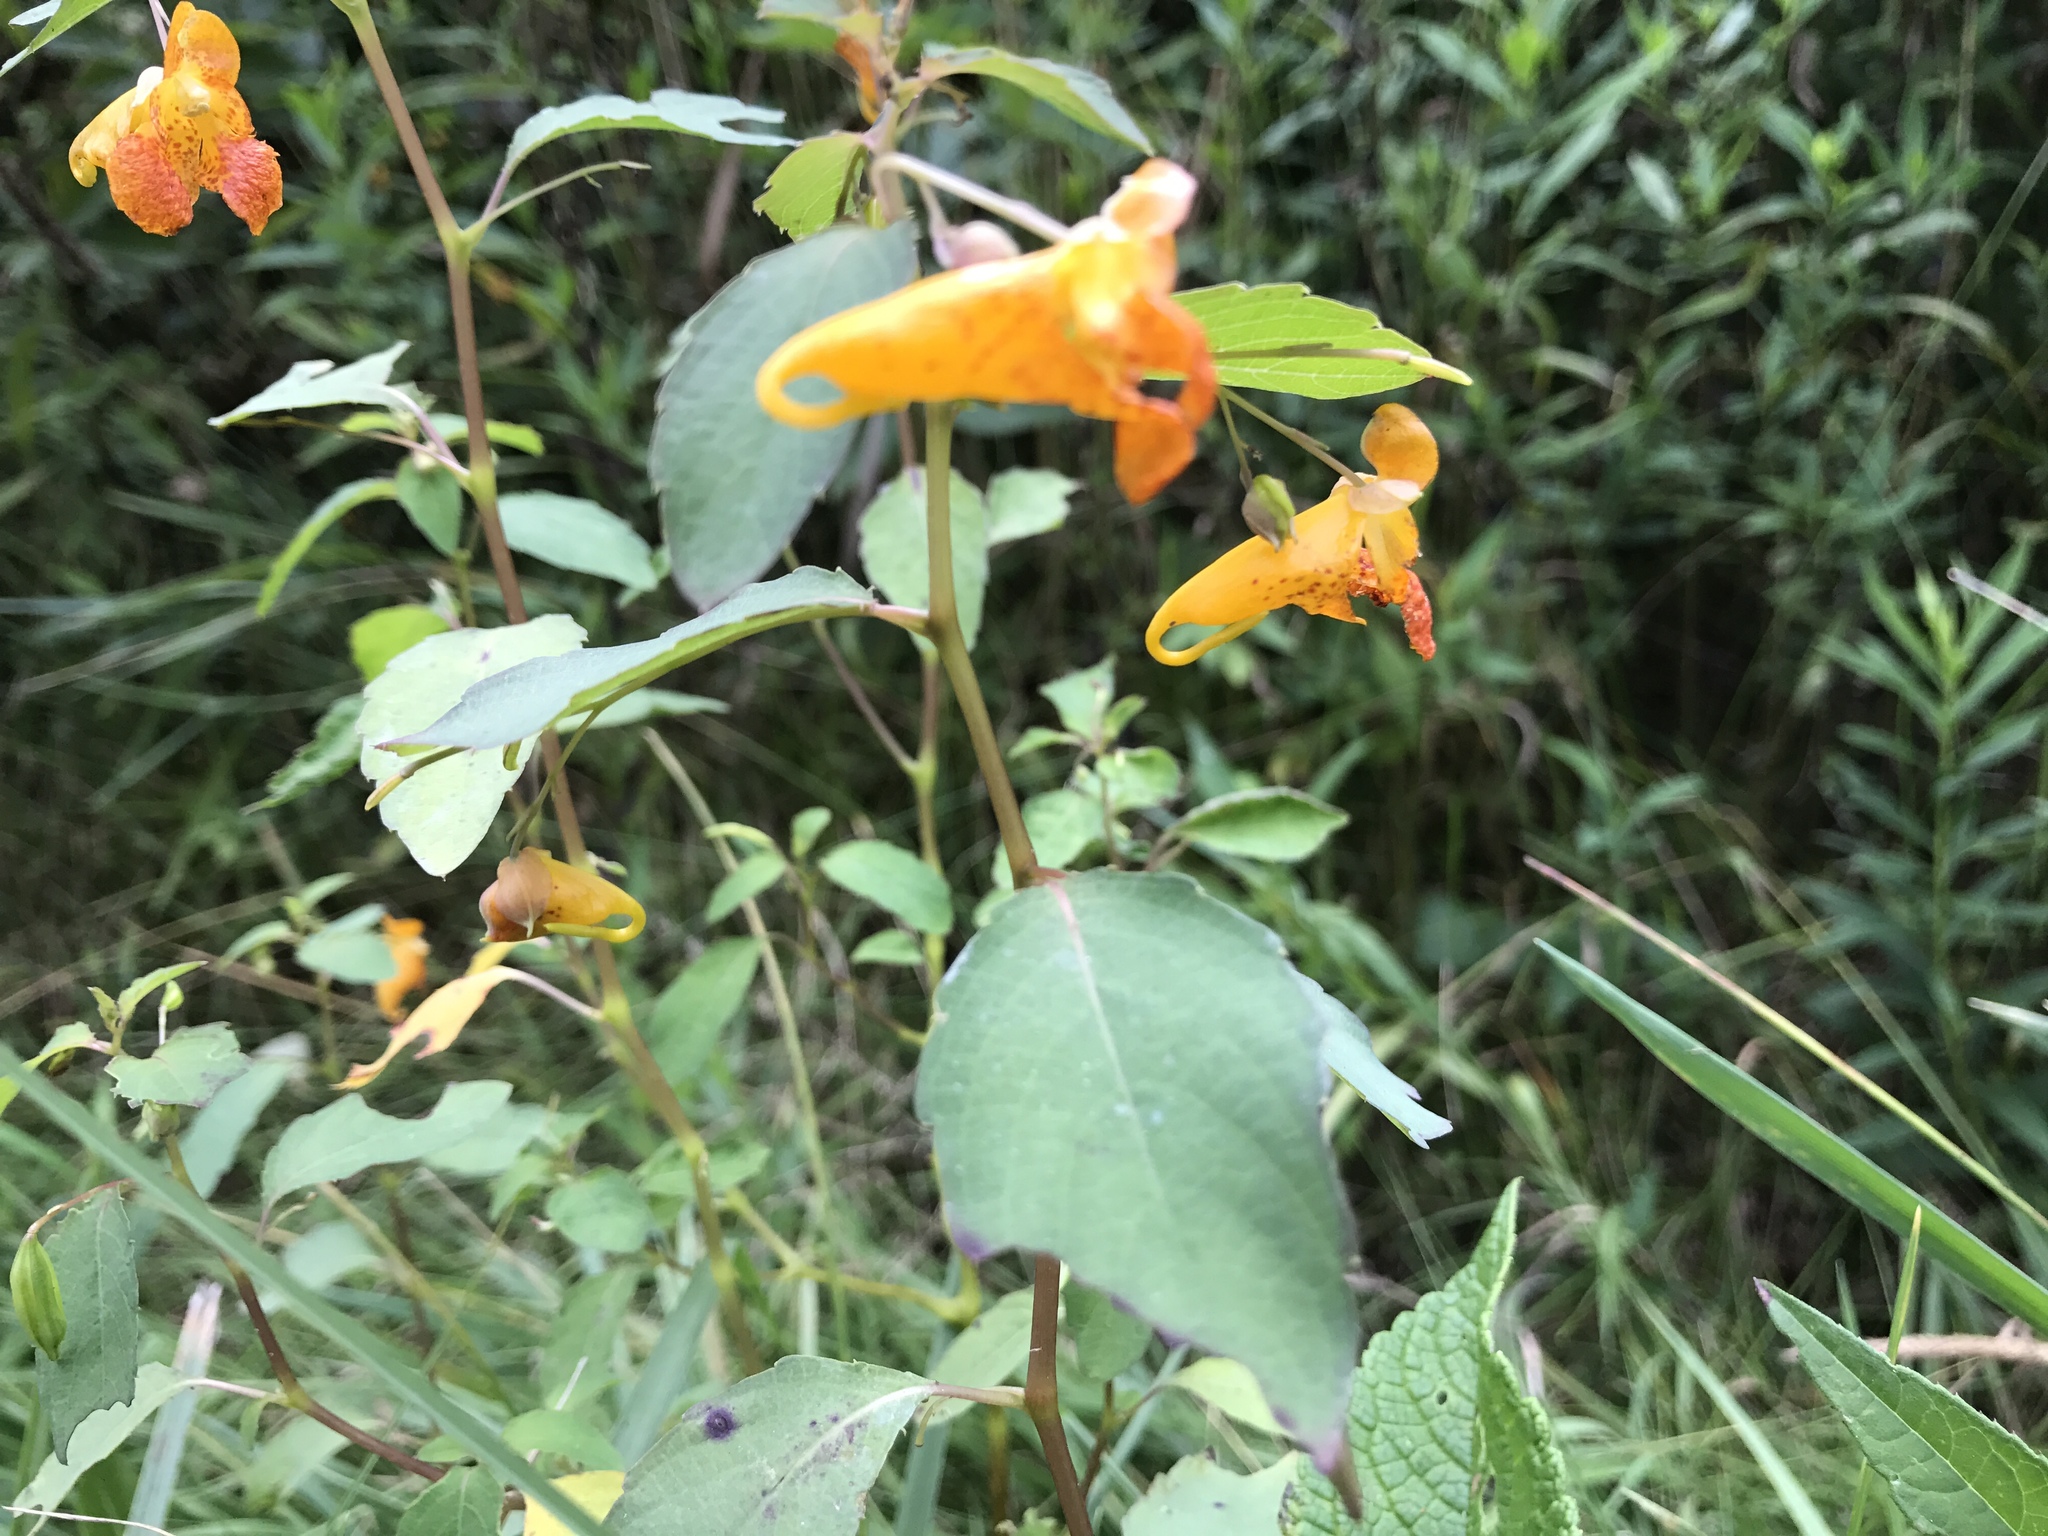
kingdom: Plantae
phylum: Tracheophyta
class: Magnoliopsida
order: Ericales
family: Balsaminaceae
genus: Impatiens
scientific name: Impatiens capensis
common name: Orange balsam
